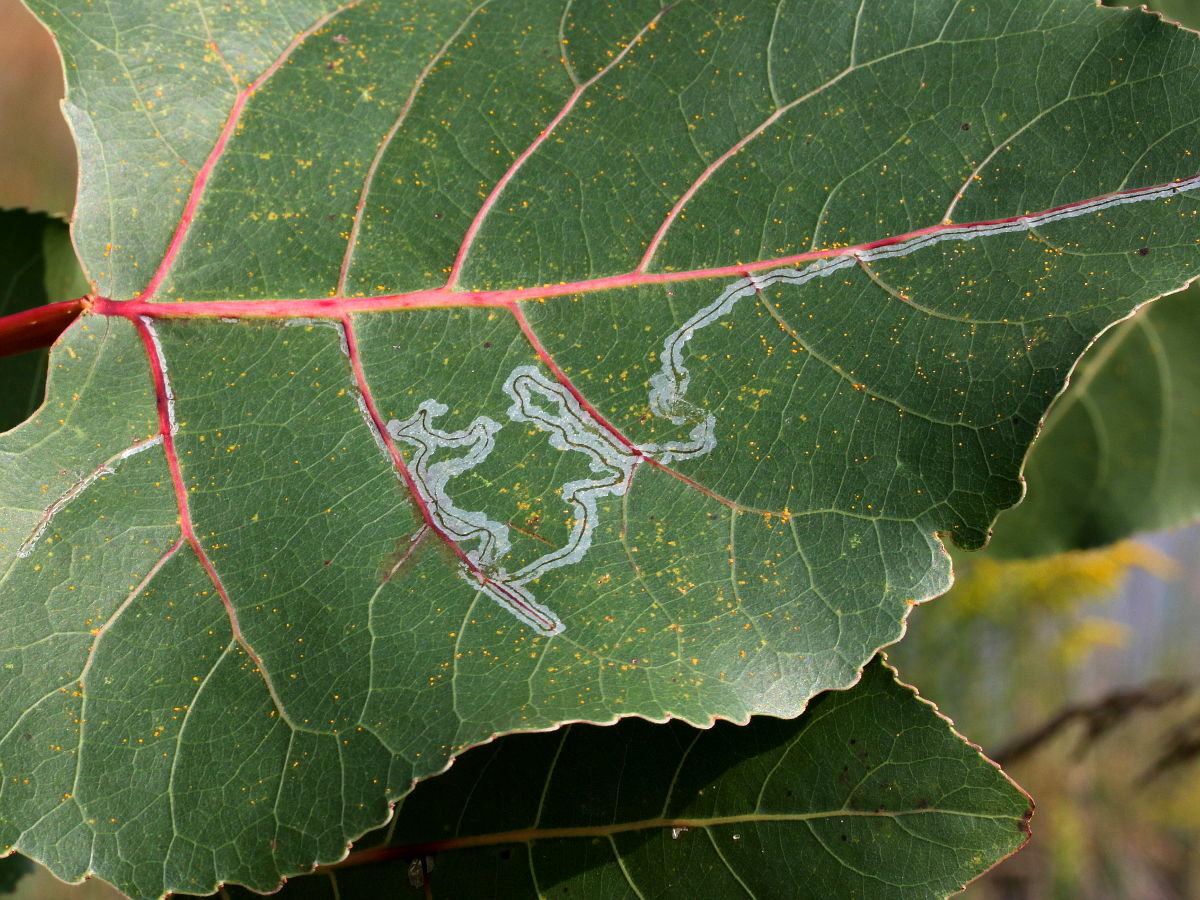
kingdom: Animalia
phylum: Arthropoda
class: Insecta
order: Lepidoptera
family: Gracillariidae
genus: Phyllocnistis
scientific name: Phyllocnistis populiella
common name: Aspen serpentine leafminer moth
